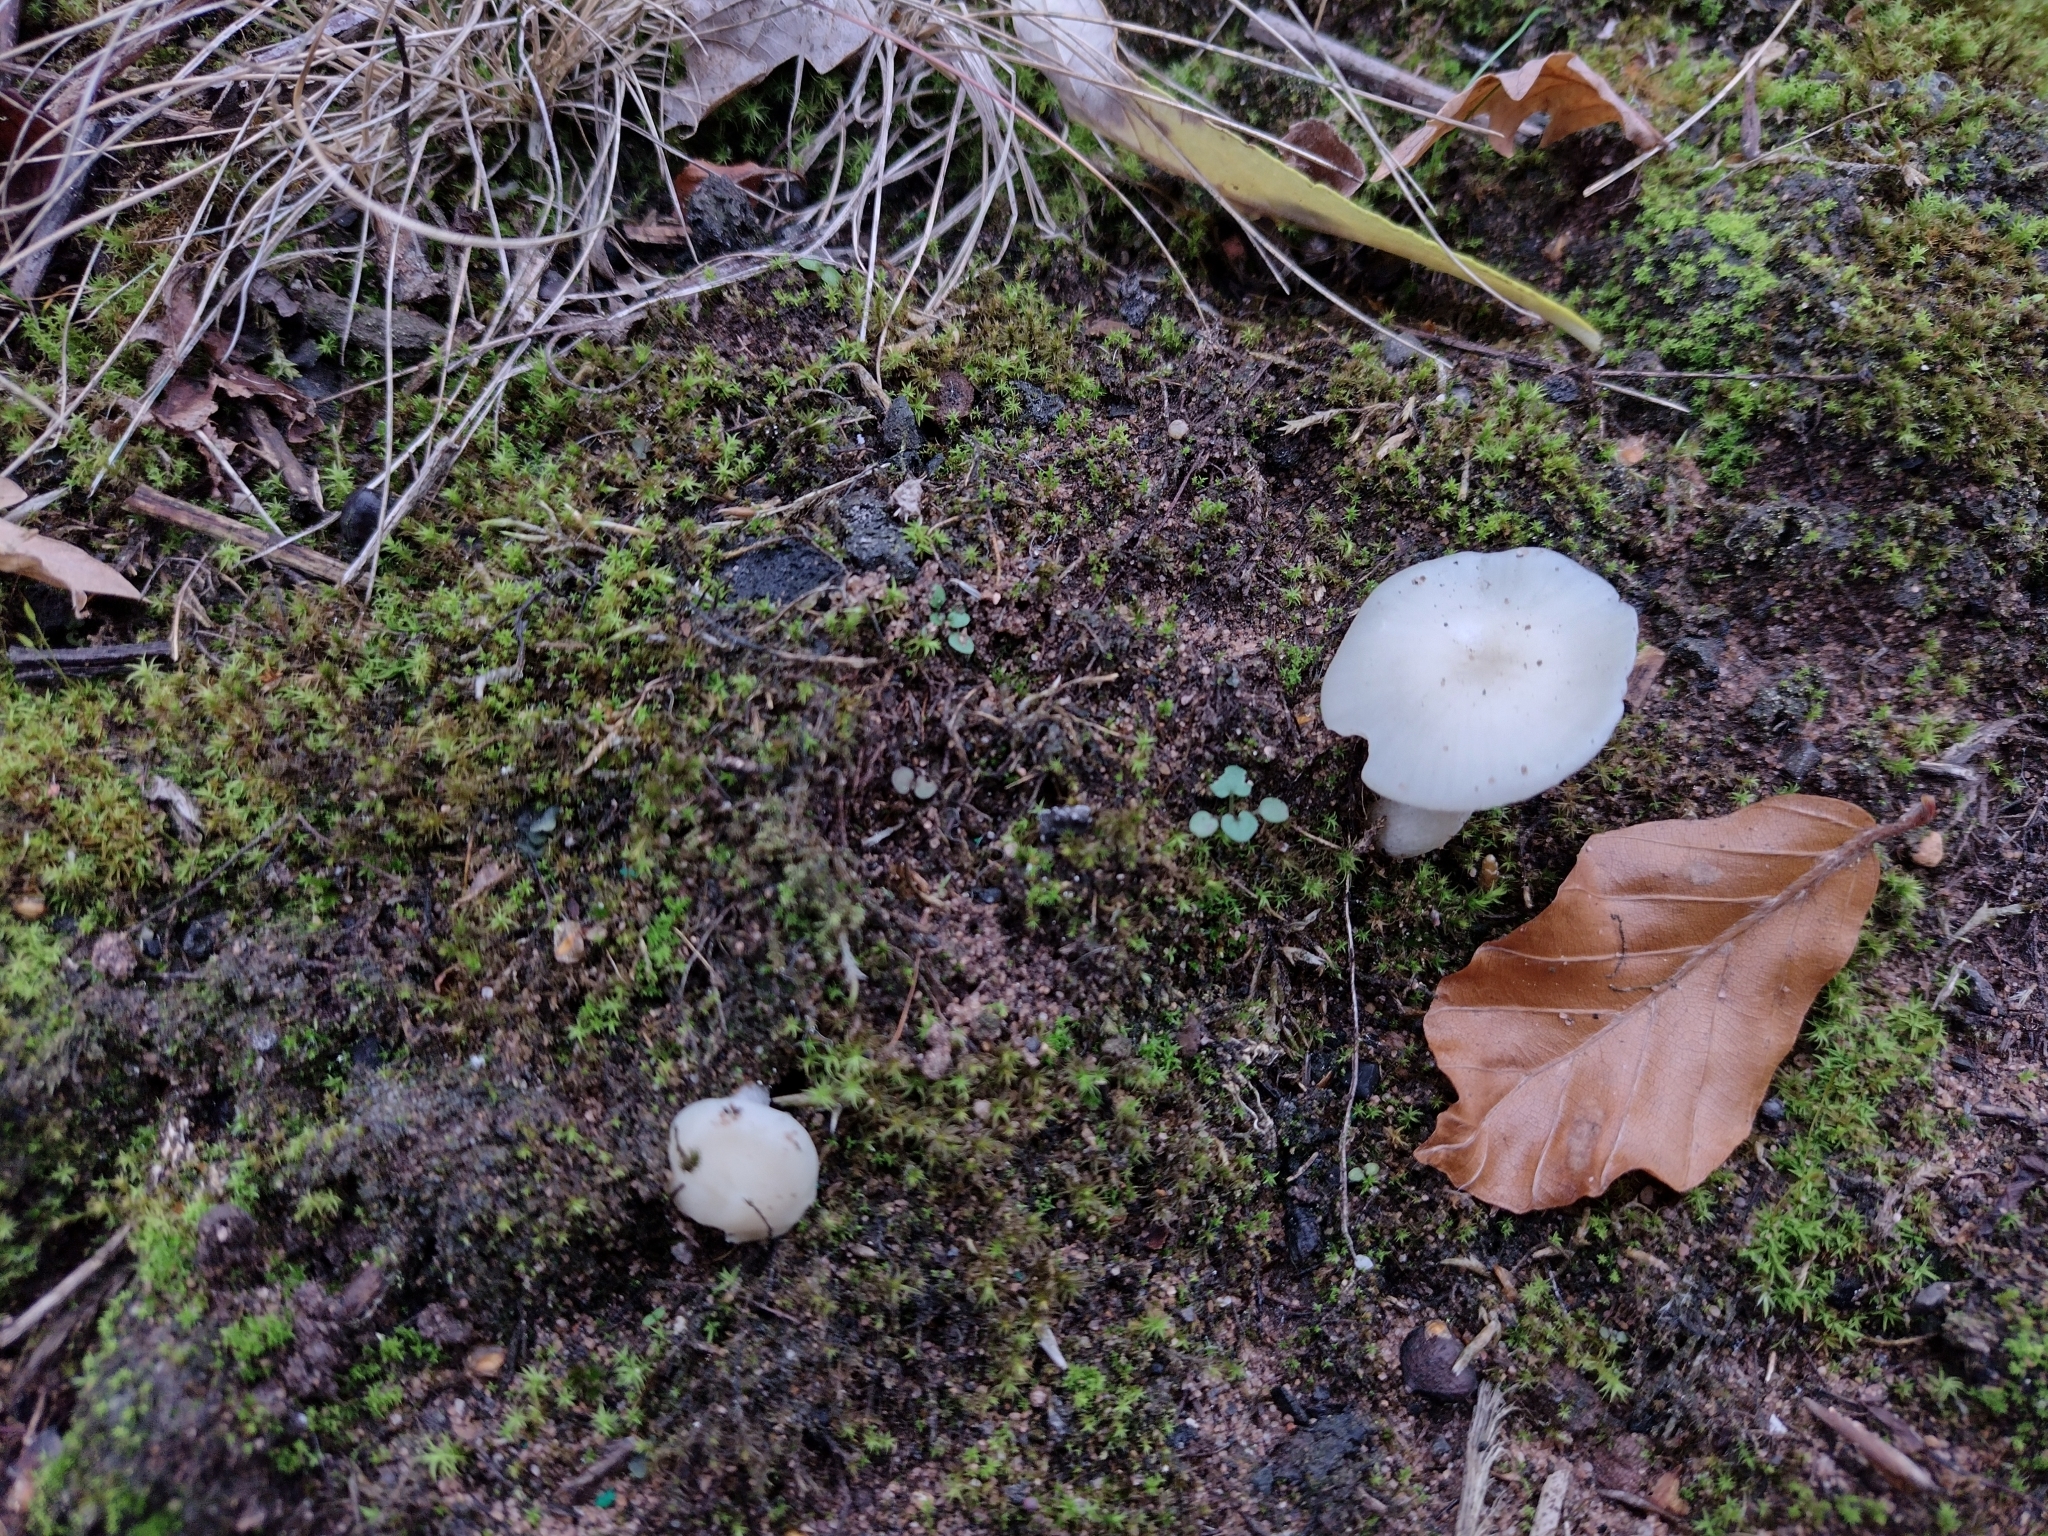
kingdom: Fungi
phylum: Basidiomycota
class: Agaricomycetes
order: Agaricales
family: Hygrophoraceae
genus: Cuphophyllus
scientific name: Cuphophyllus virgineus
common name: Snowy waxcap
